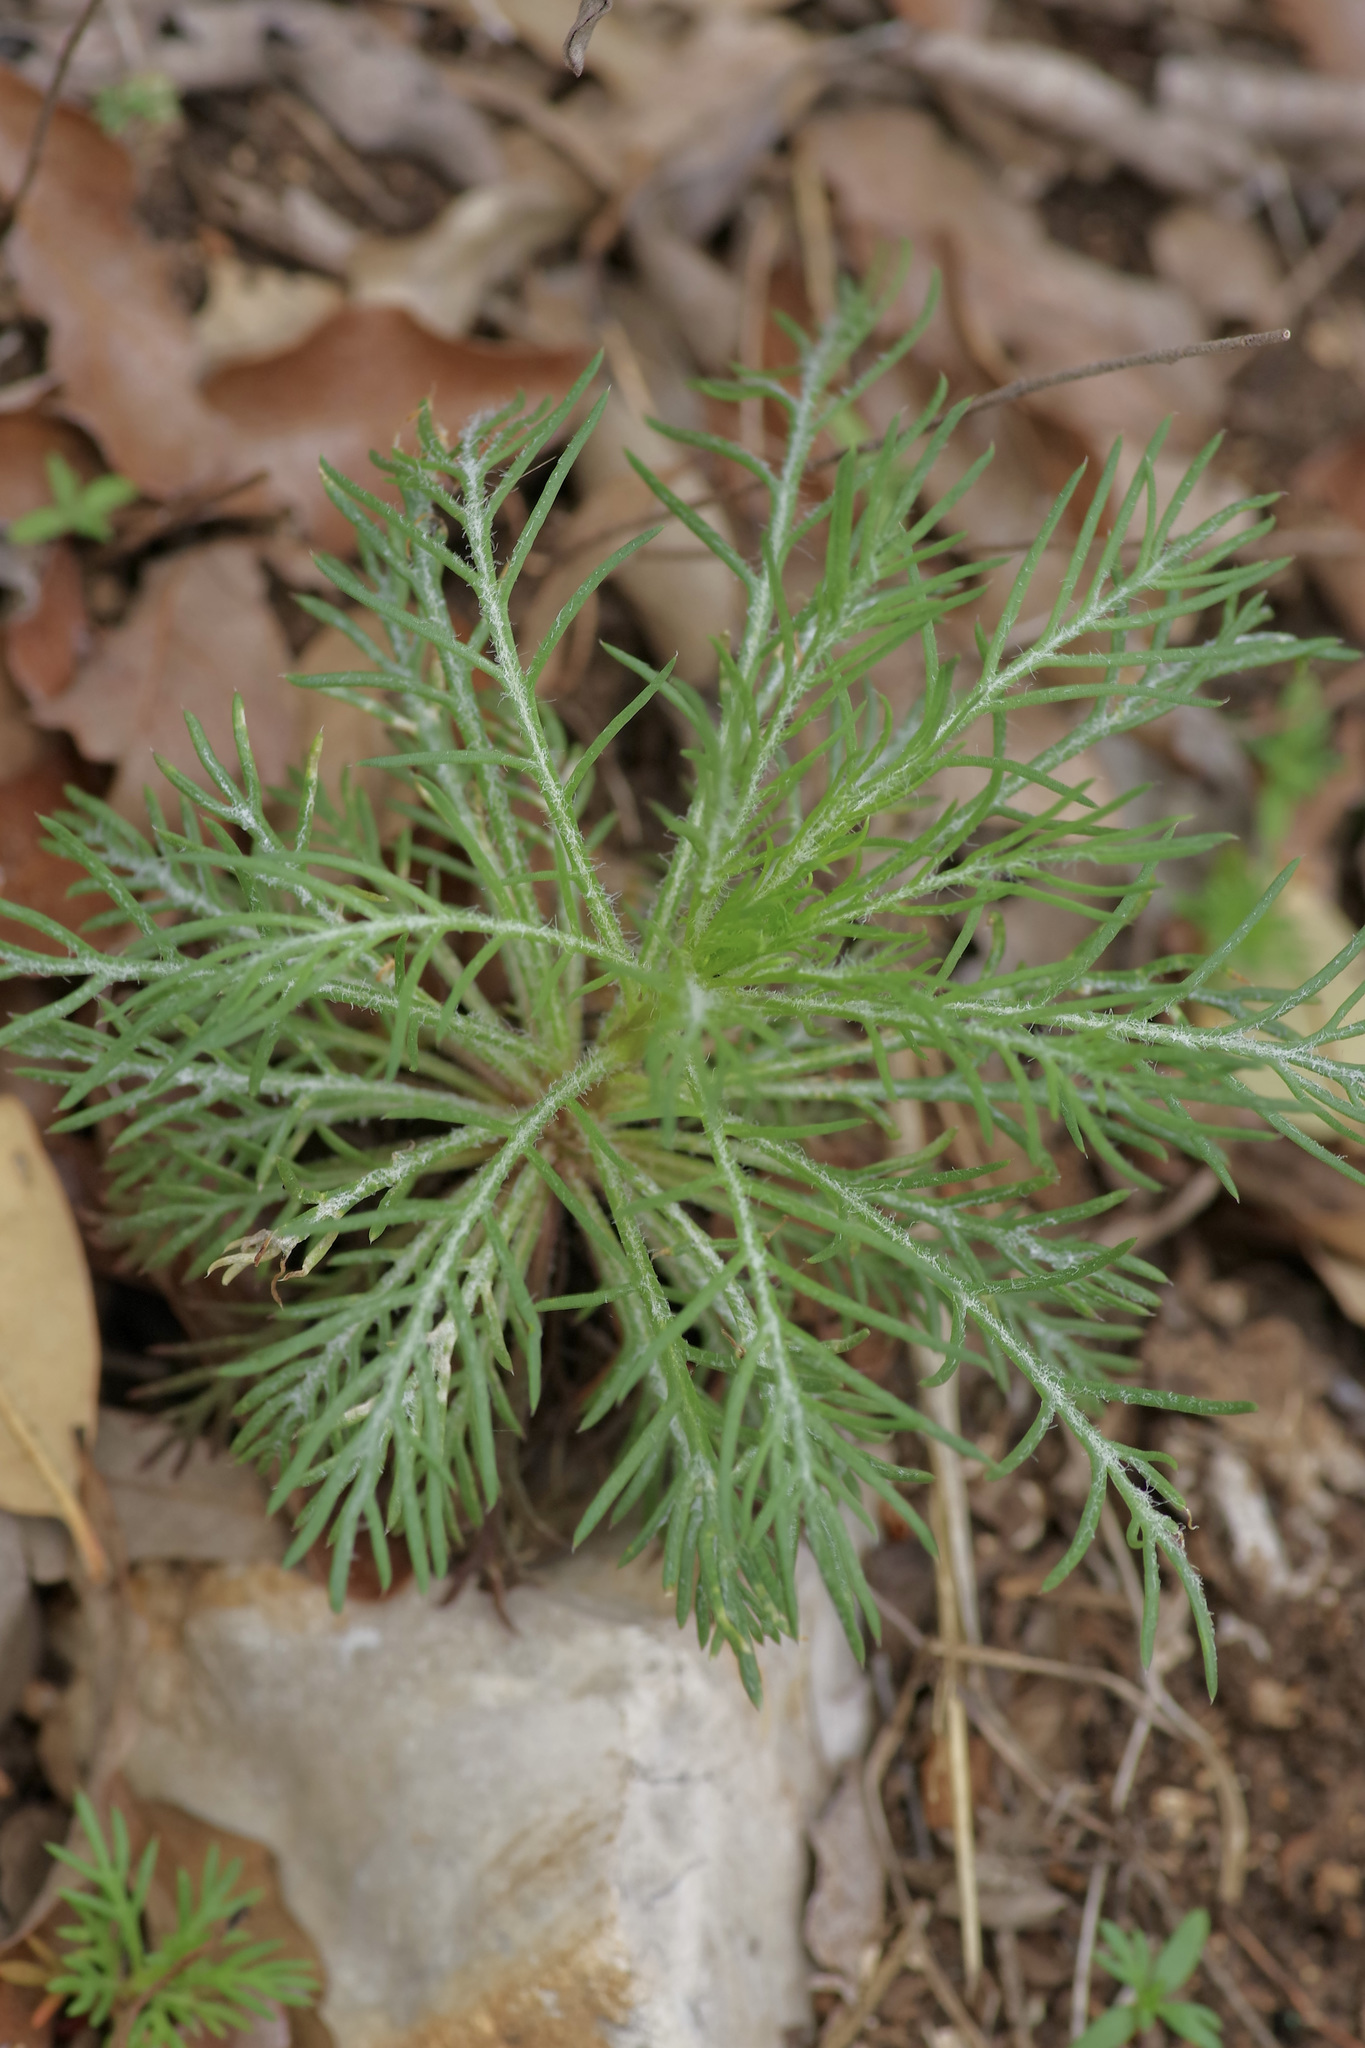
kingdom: Plantae
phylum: Tracheophyta
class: Magnoliopsida
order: Ericales
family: Polemoniaceae
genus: Ipomopsis
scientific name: Ipomopsis rubra
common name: Skyrocket
